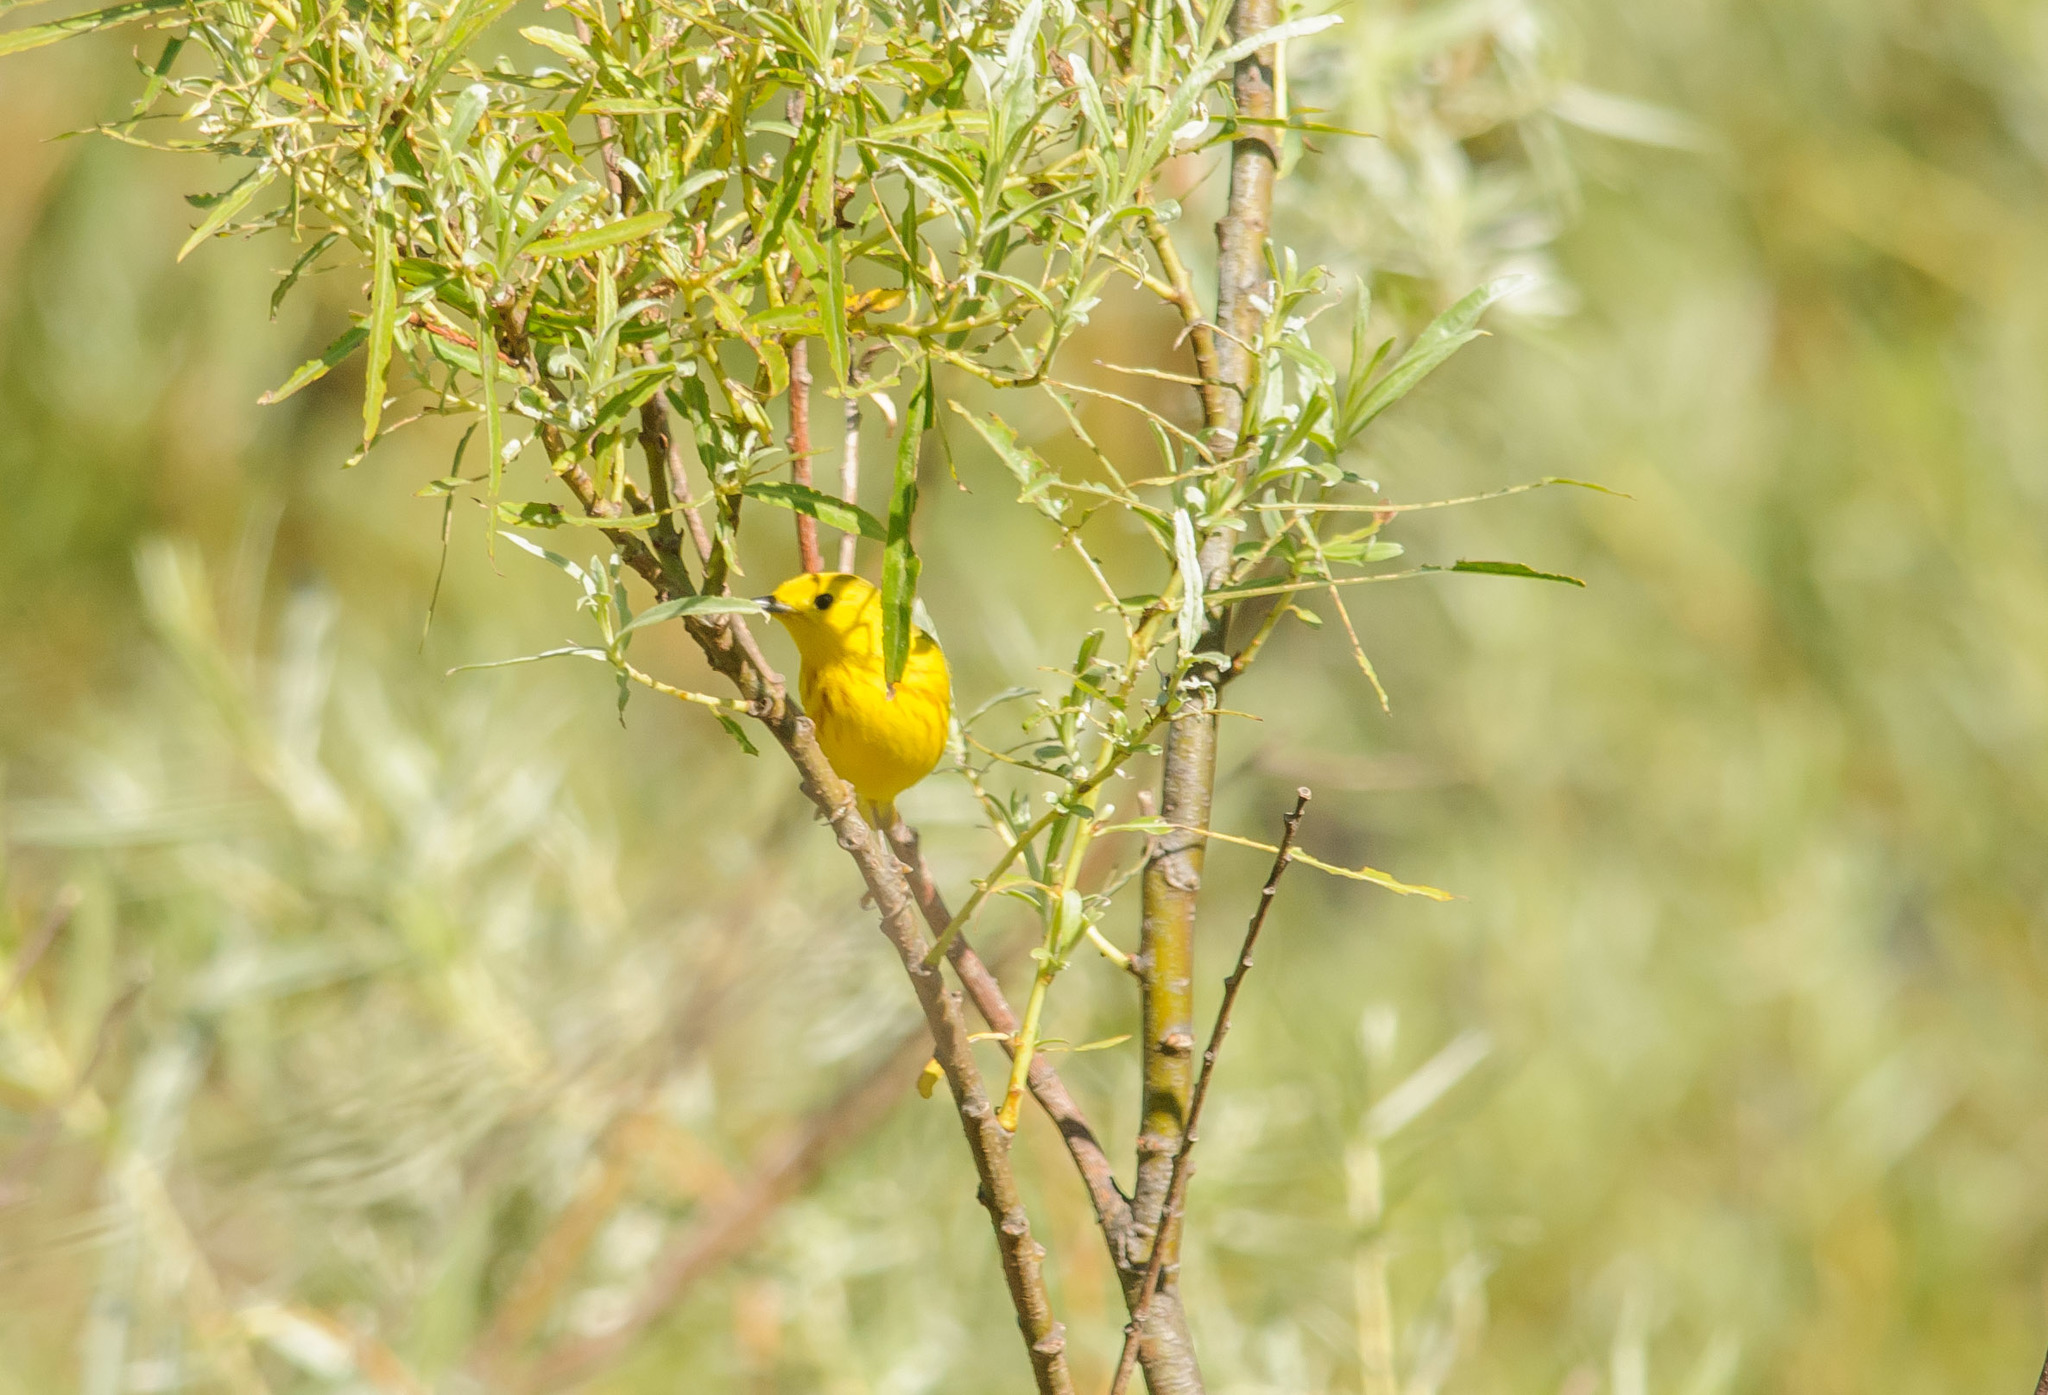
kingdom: Animalia
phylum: Chordata
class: Aves
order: Passeriformes
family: Parulidae
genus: Setophaga
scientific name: Setophaga petechia
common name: Yellow warbler
